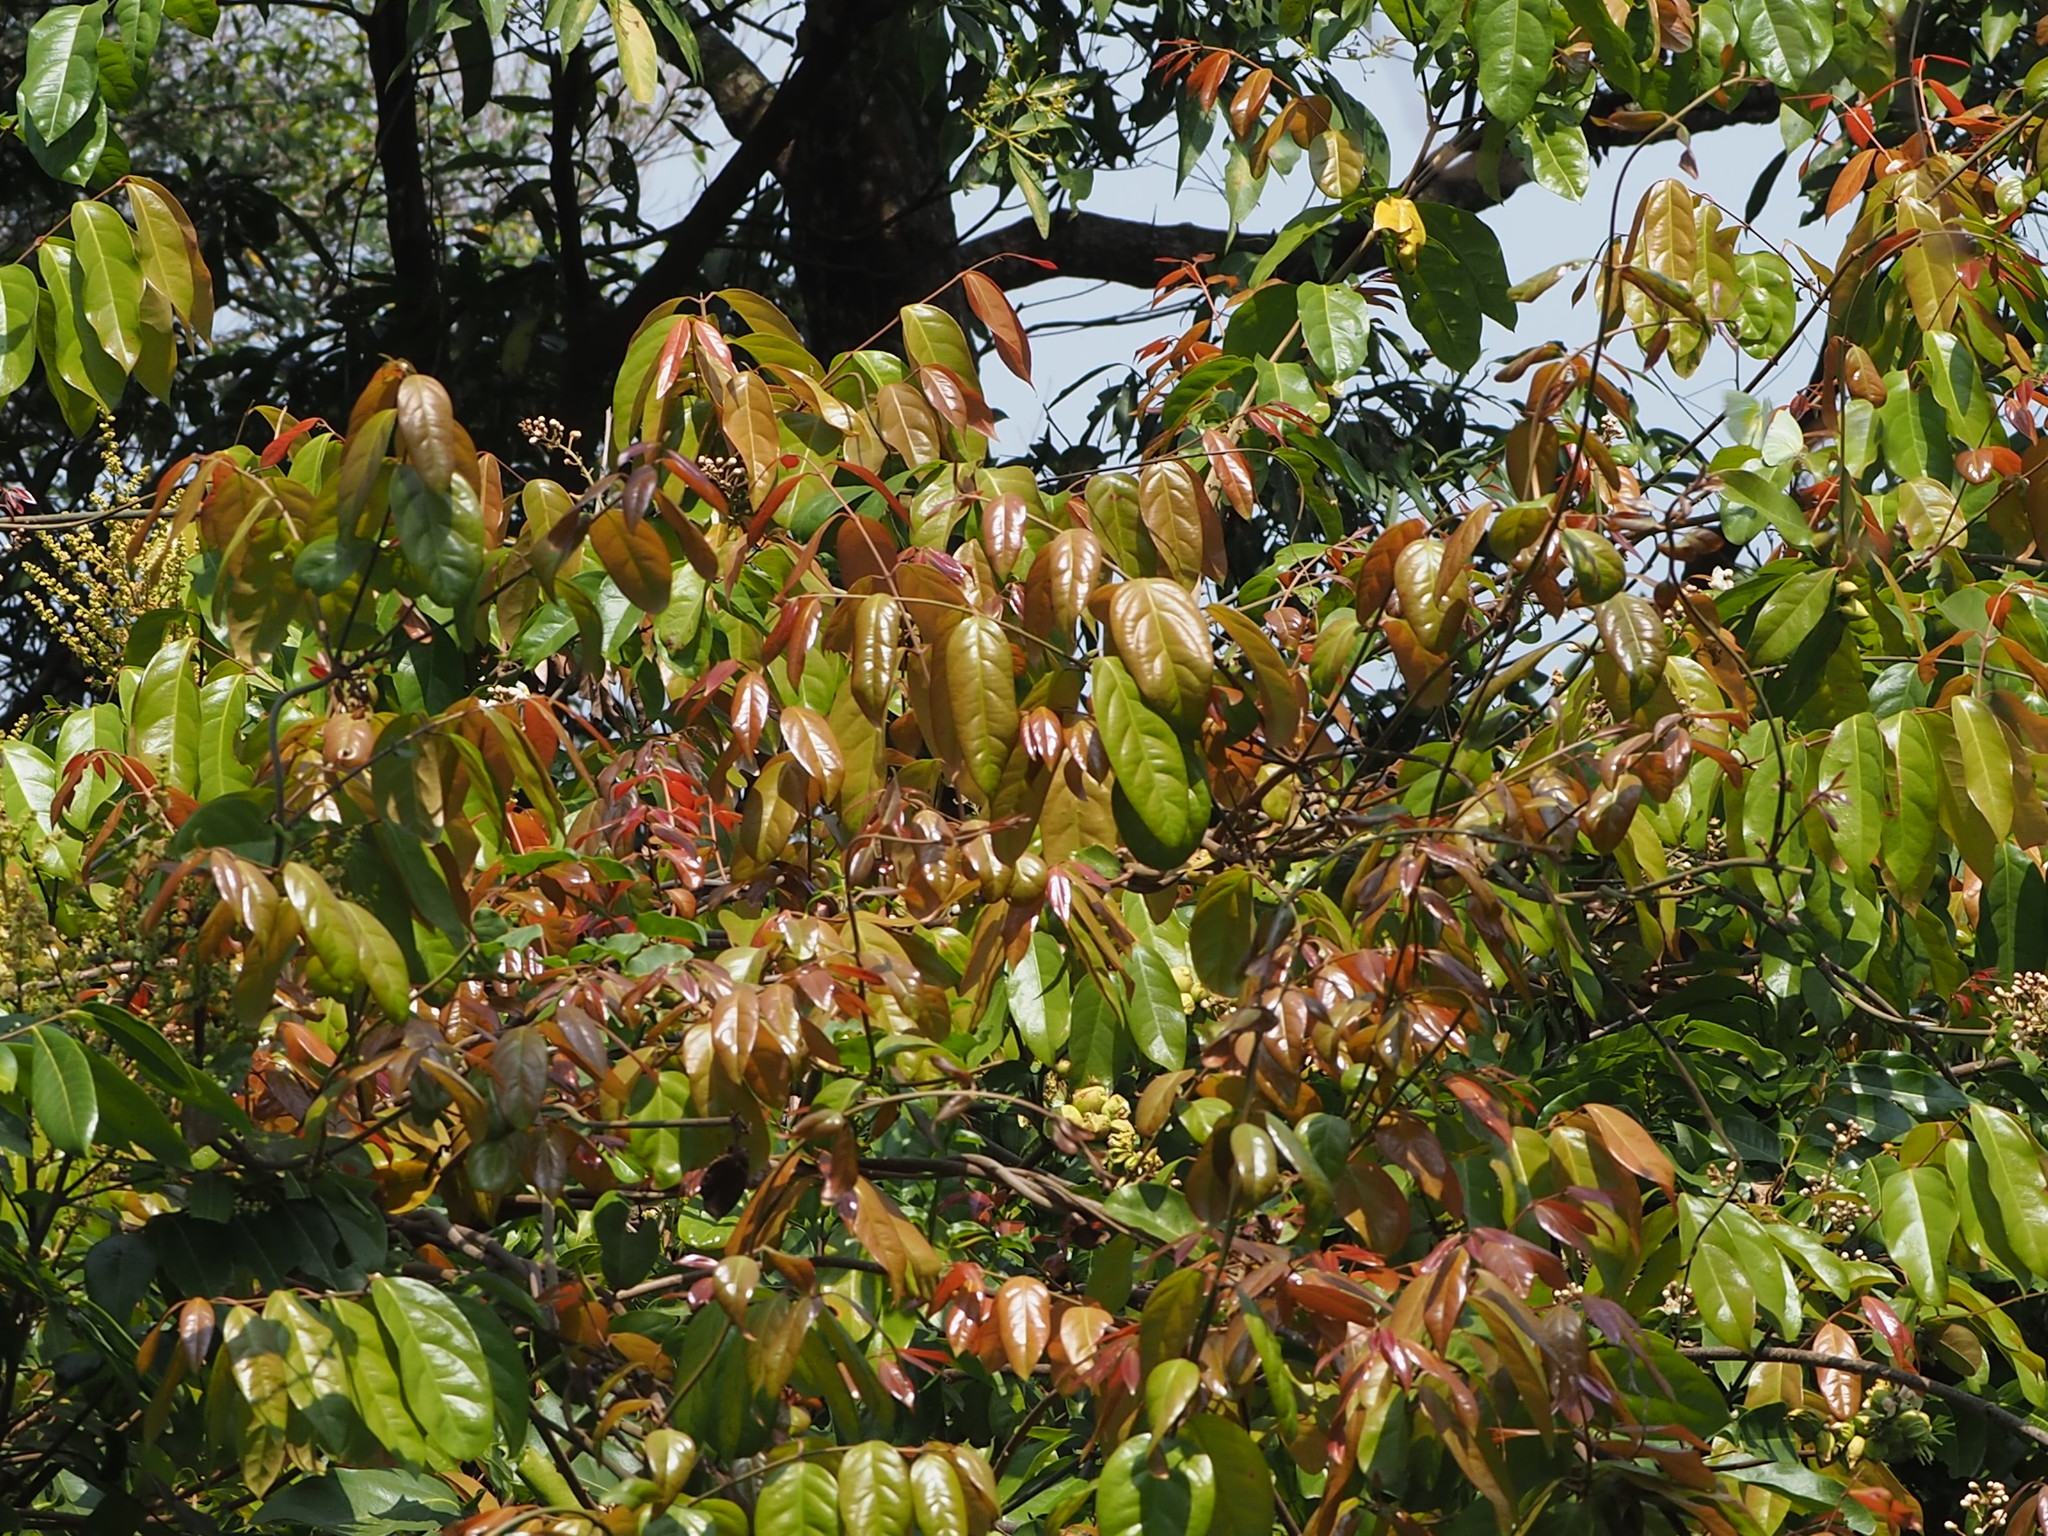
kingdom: Plantae
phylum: Tracheophyta
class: Magnoliopsida
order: Malpighiales
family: Malpighiaceae
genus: Hiptage
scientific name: Hiptage benghalensis
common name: Hiptage
